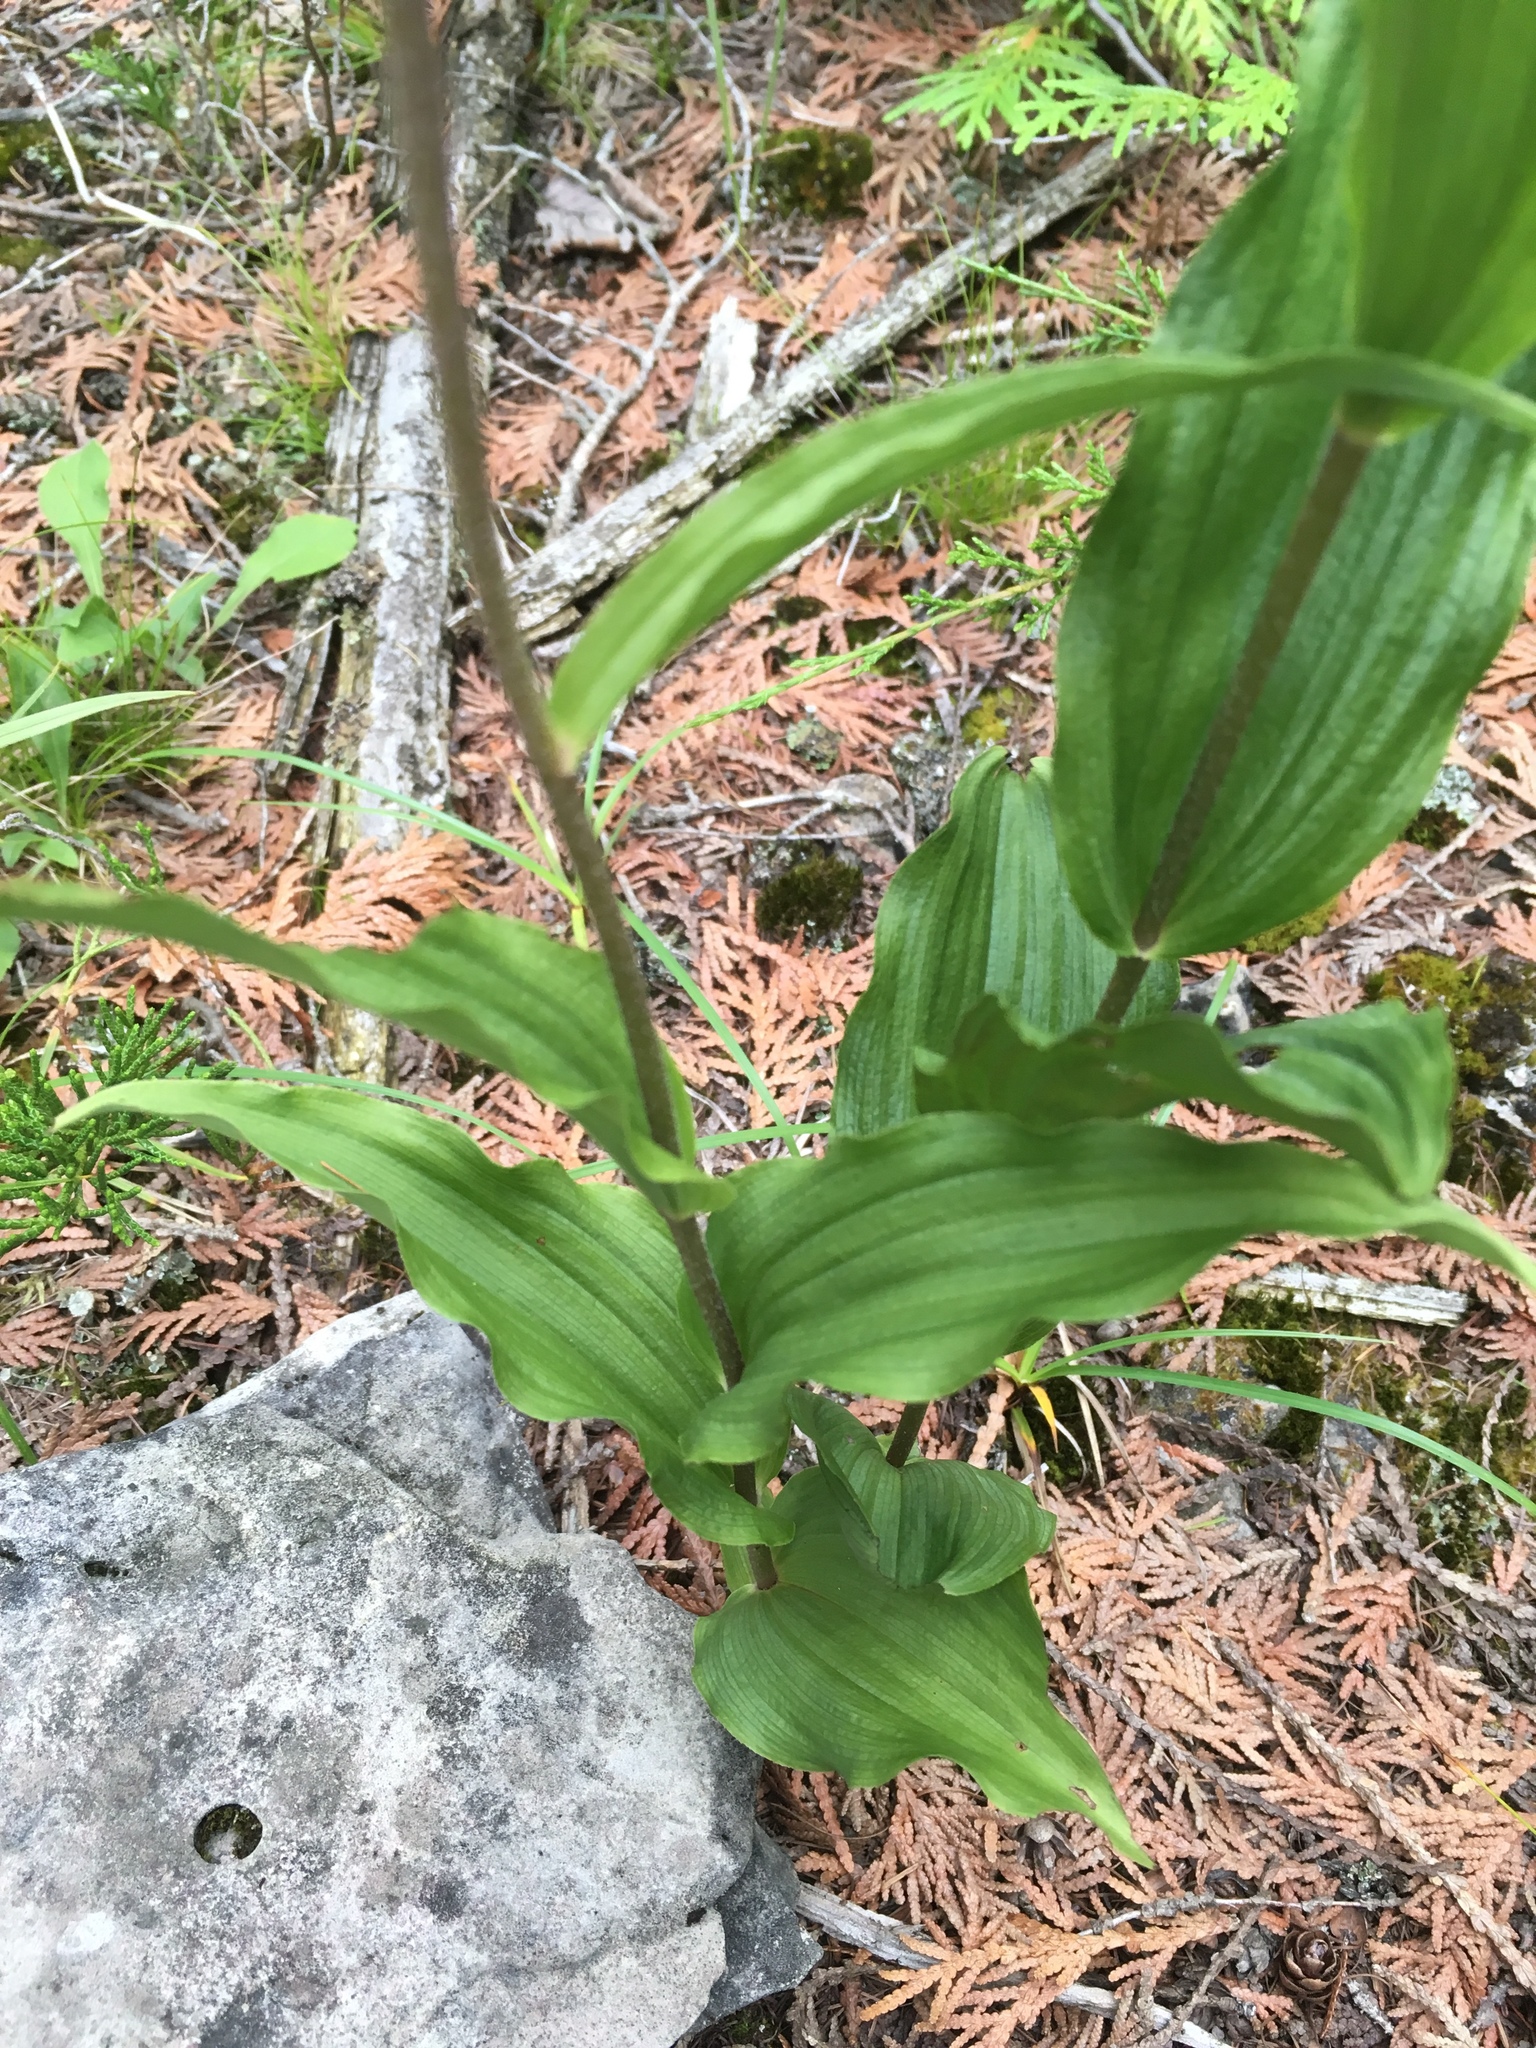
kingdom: Plantae
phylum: Tracheophyta
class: Liliopsida
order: Asparagales
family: Orchidaceae
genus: Epipactis
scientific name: Epipactis helleborine
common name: Broad-leaved helleborine
